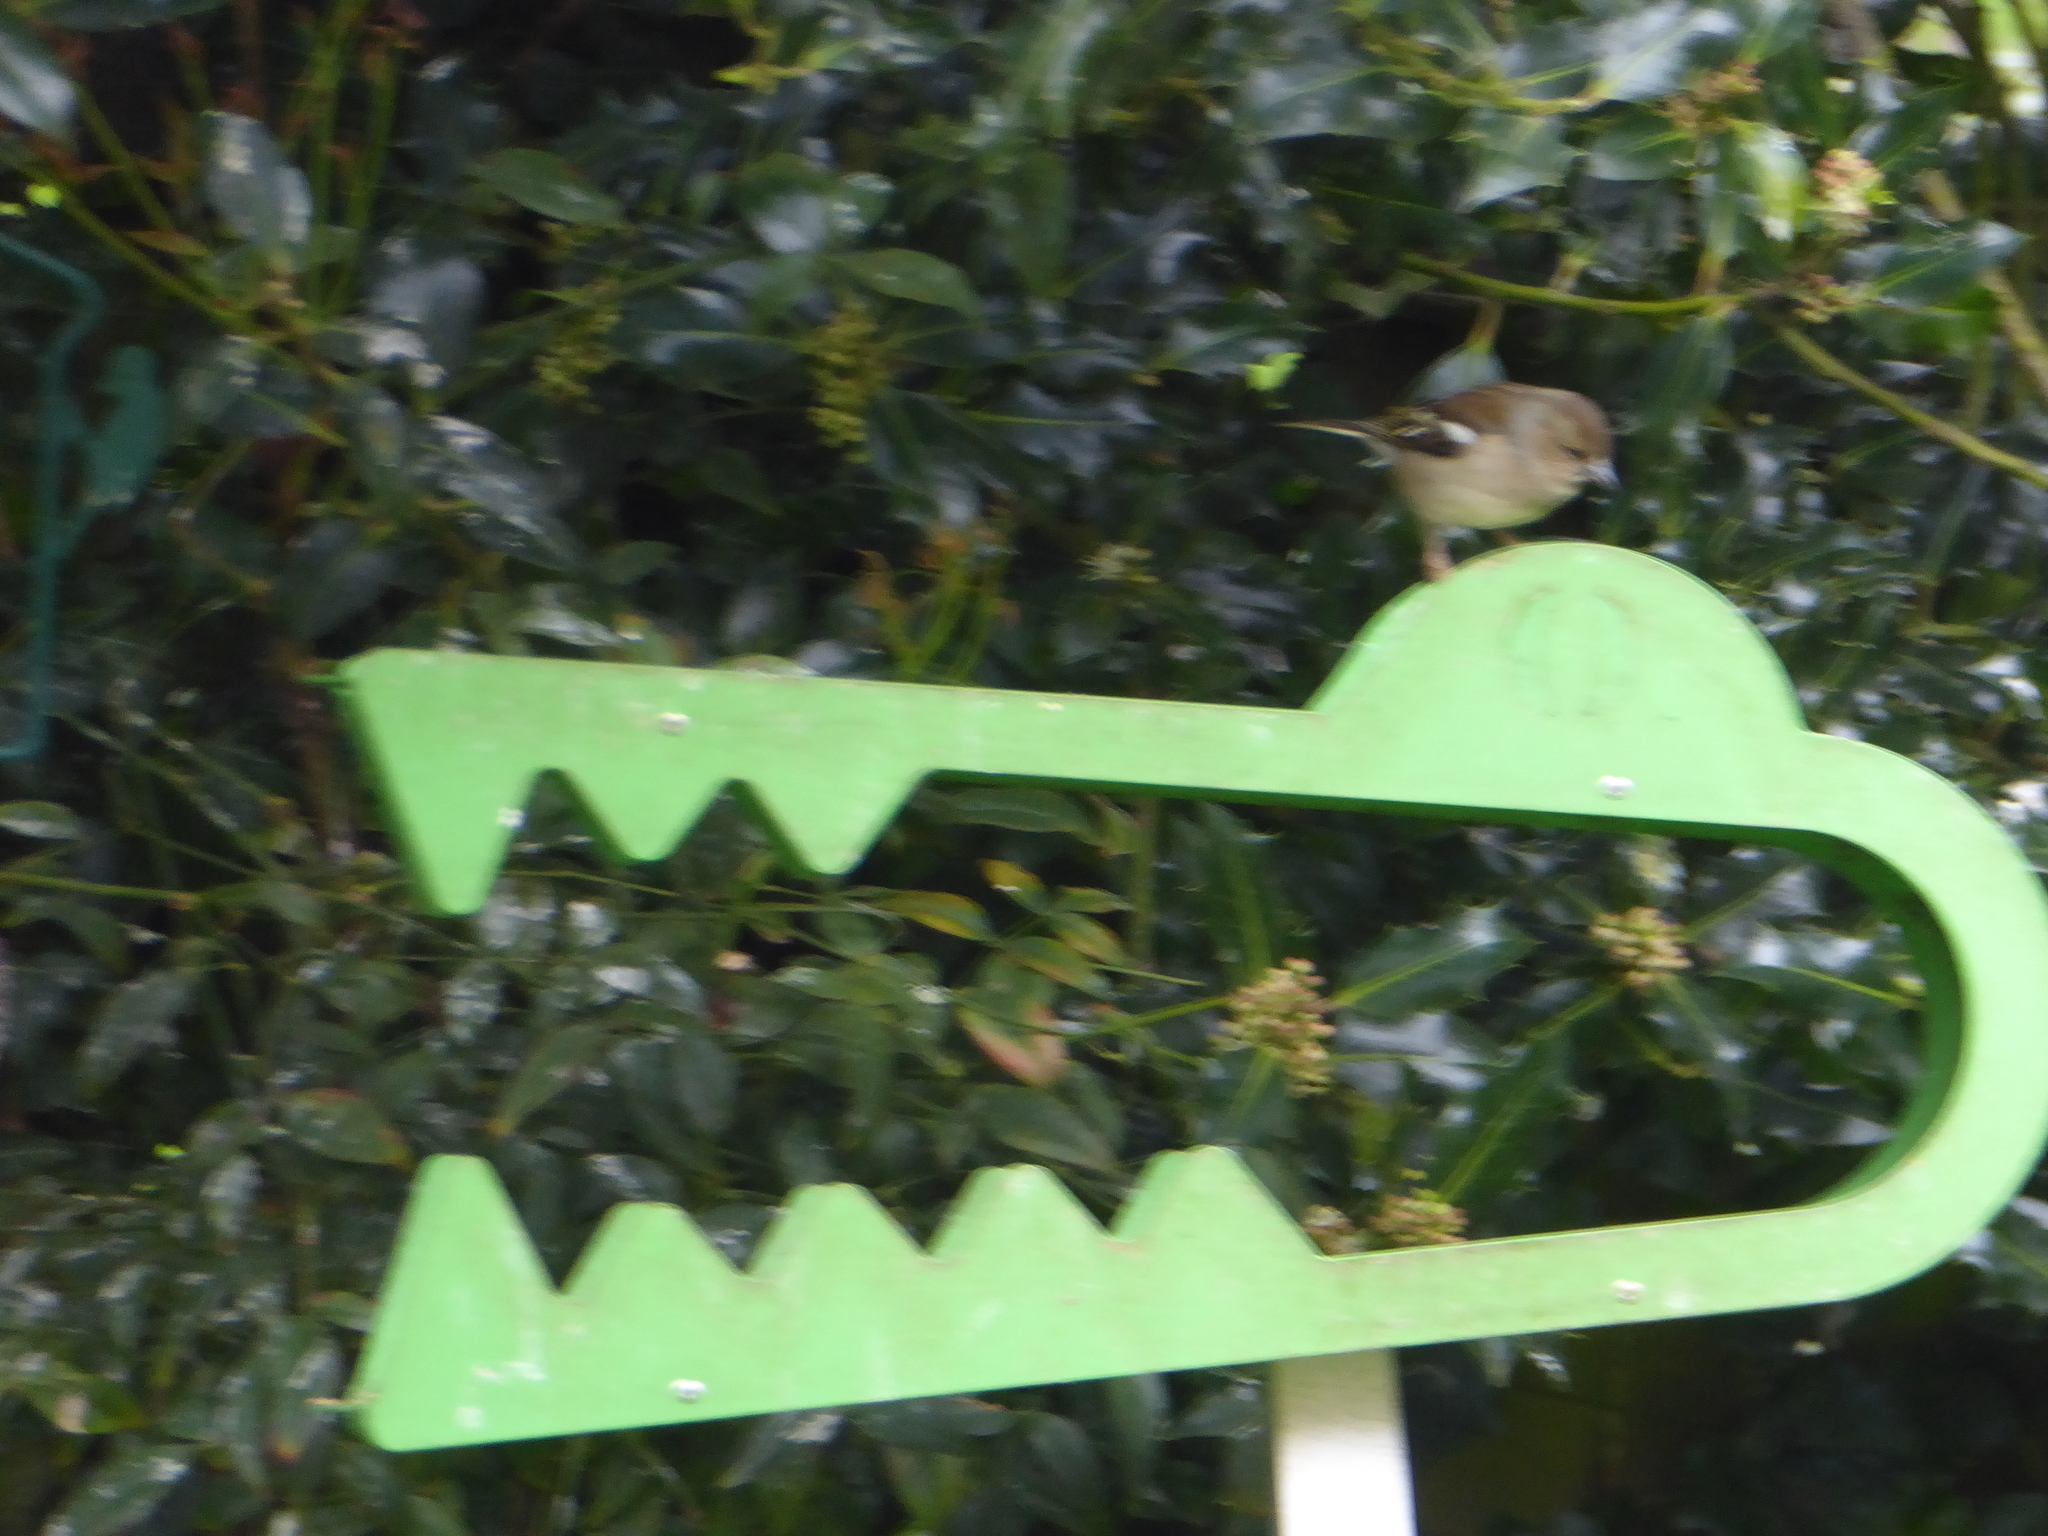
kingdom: Animalia
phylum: Chordata
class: Aves
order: Passeriformes
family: Fringillidae
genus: Fringilla
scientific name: Fringilla coelebs
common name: Common chaffinch
